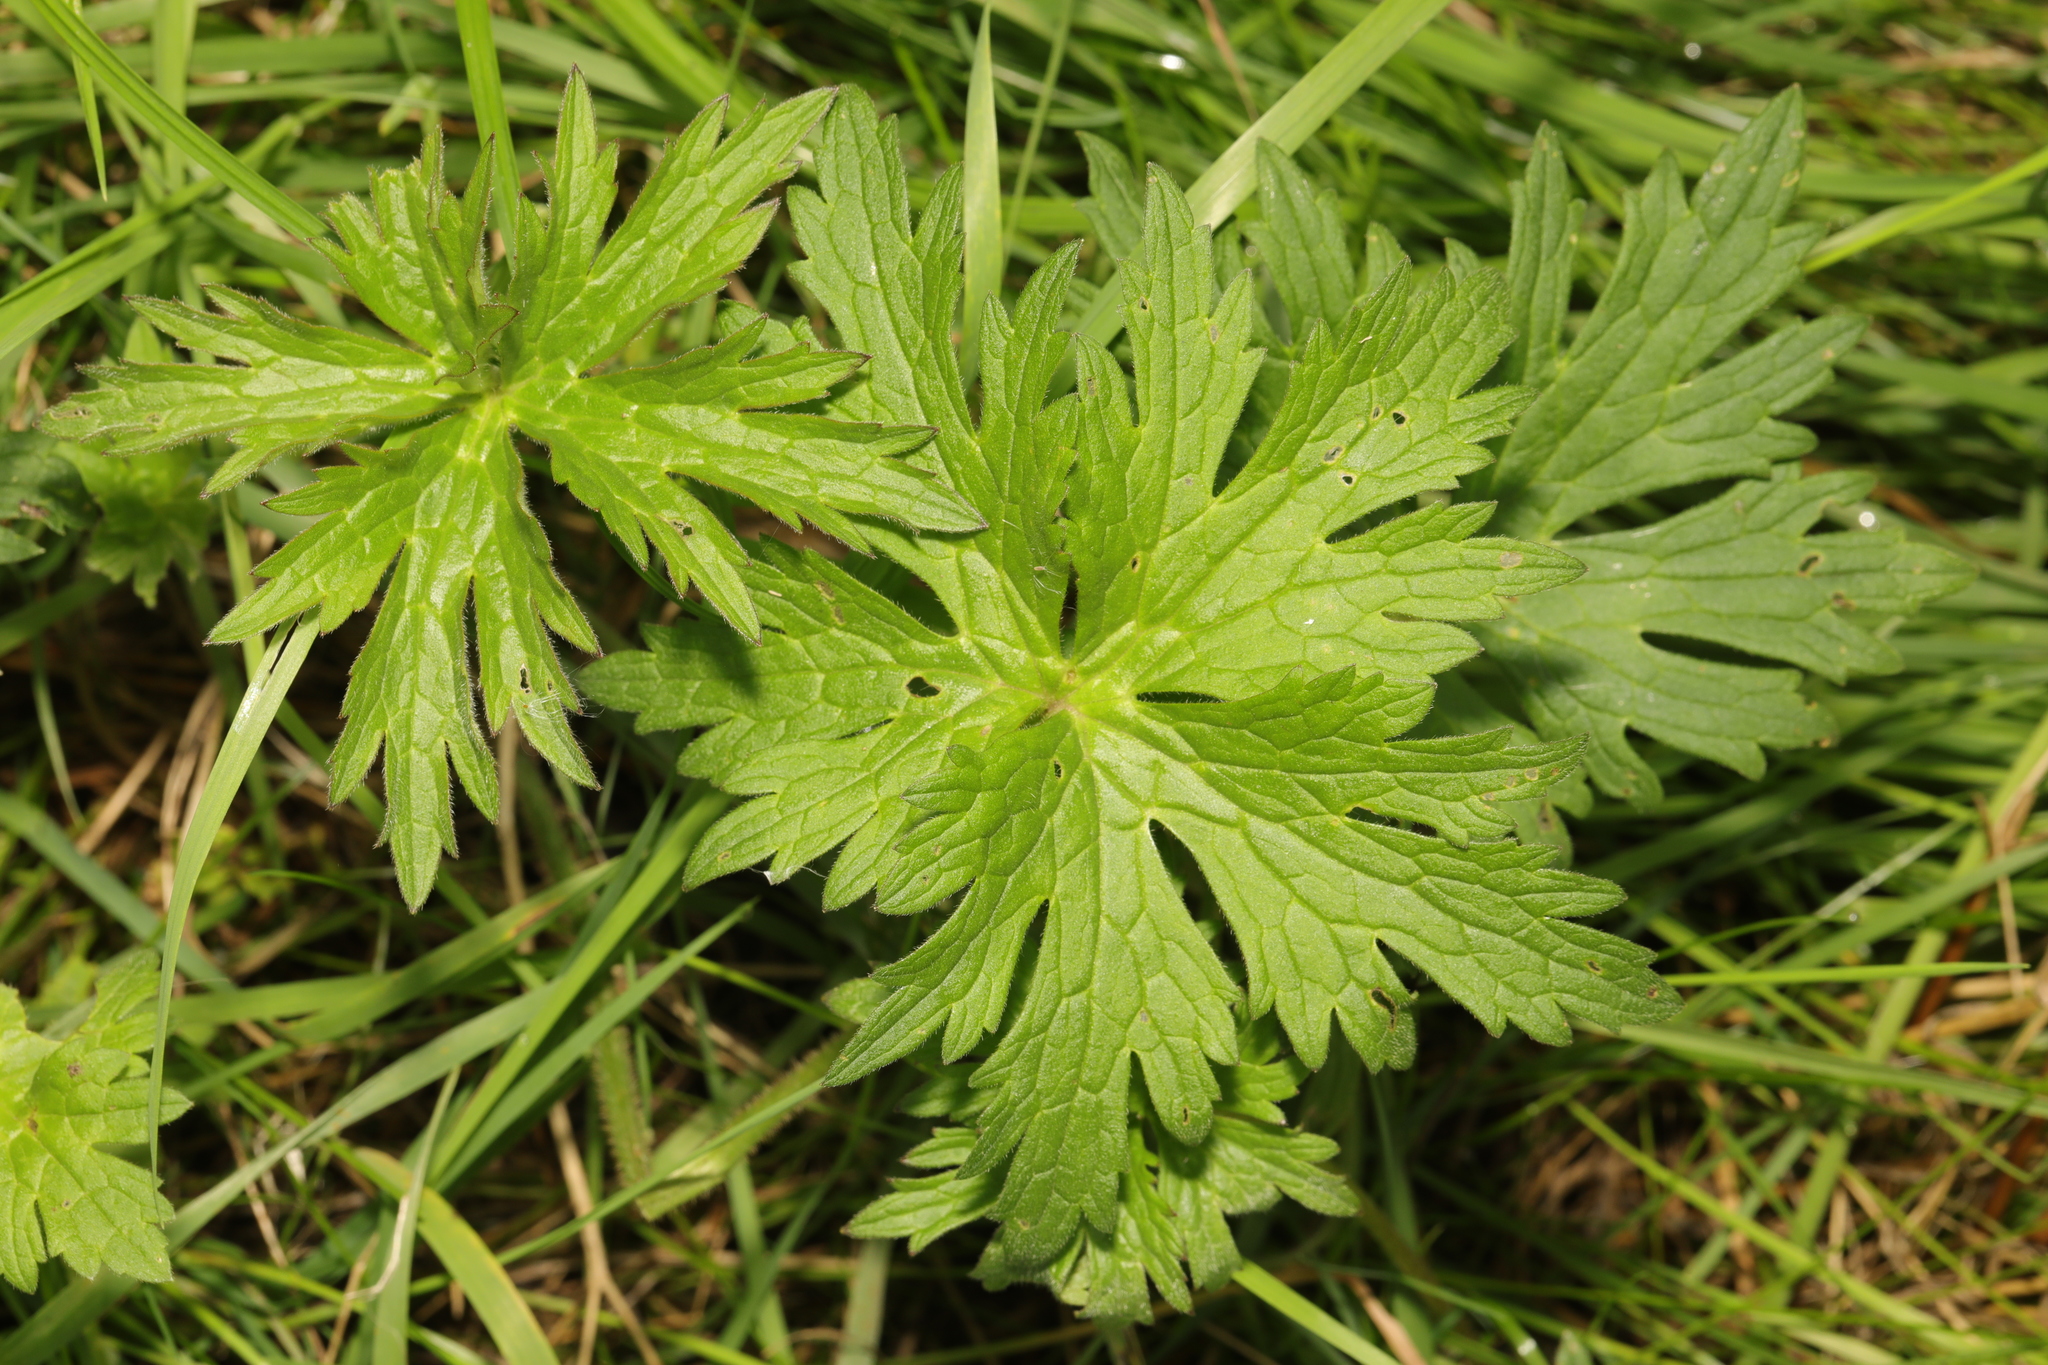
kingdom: Plantae
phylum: Tracheophyta
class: Magnoliopsida
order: Ranunculales
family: Ranunculaceae
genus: Ranunculus
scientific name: Ranunculus acris
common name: Meadow buttercup
